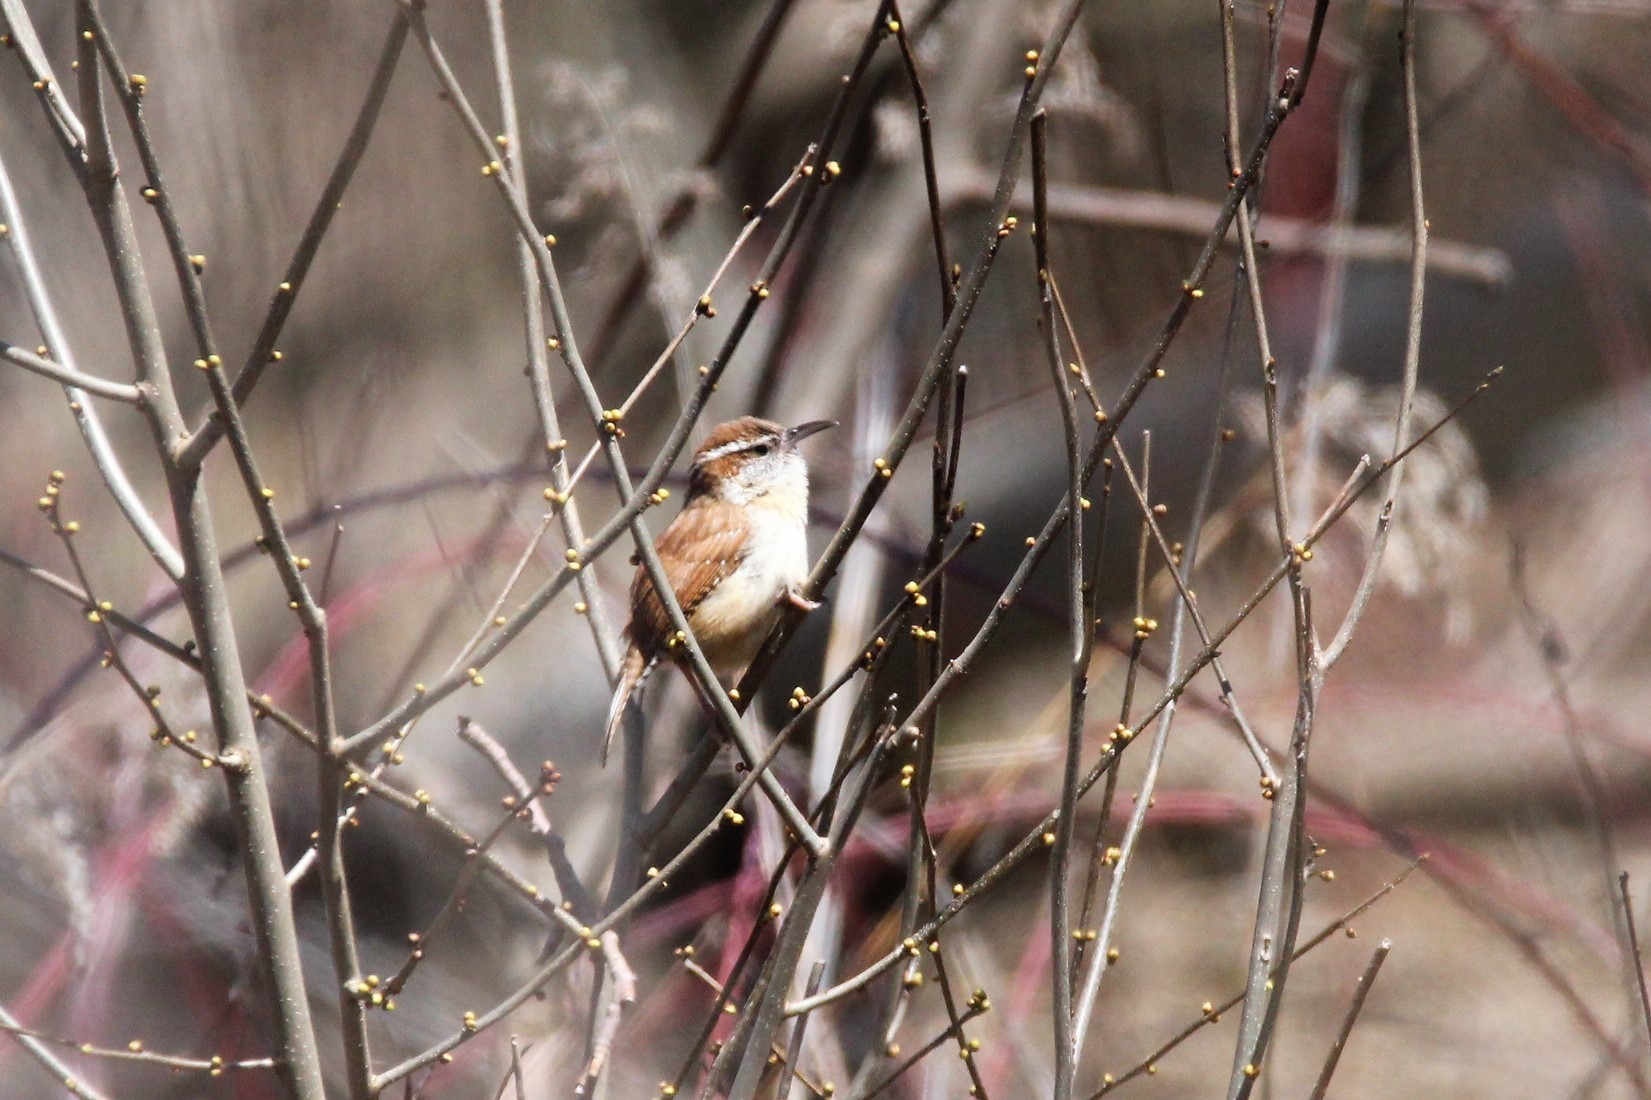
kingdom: Animalia
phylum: Chordata
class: Aves
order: Passeriformes
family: Troglodytidae
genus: Thryothorus
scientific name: Thryothorus ludovicianus
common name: Carolina wren
